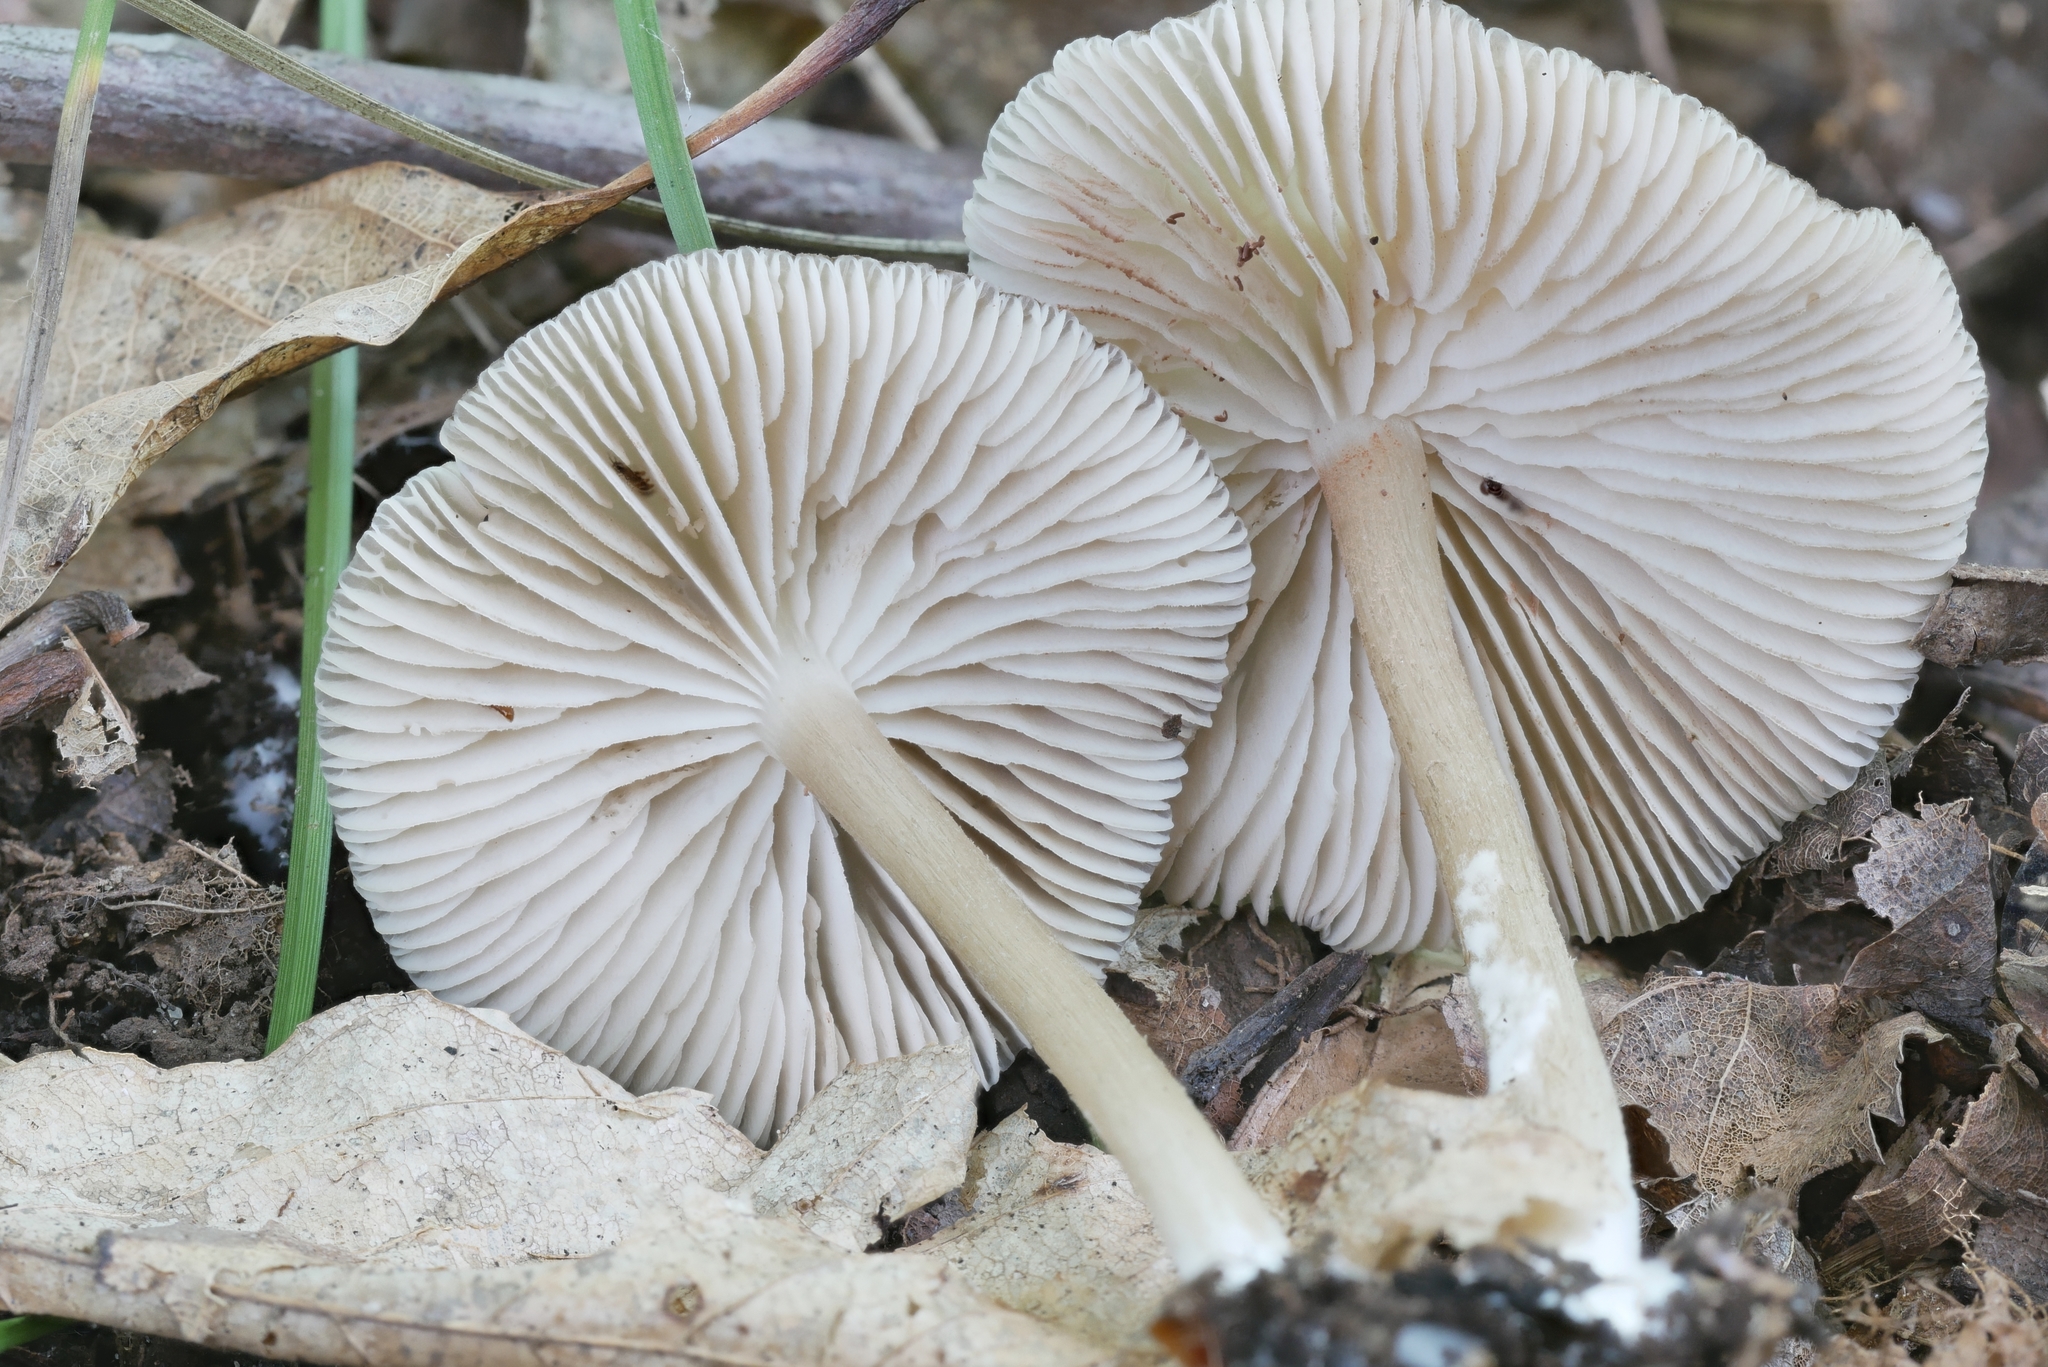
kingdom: Fungi
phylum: Basidiomycota
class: Agaricomycetes
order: Agaricales
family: Entolomataceae
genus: Entoloma
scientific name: Entoloma fuscosquamosum
